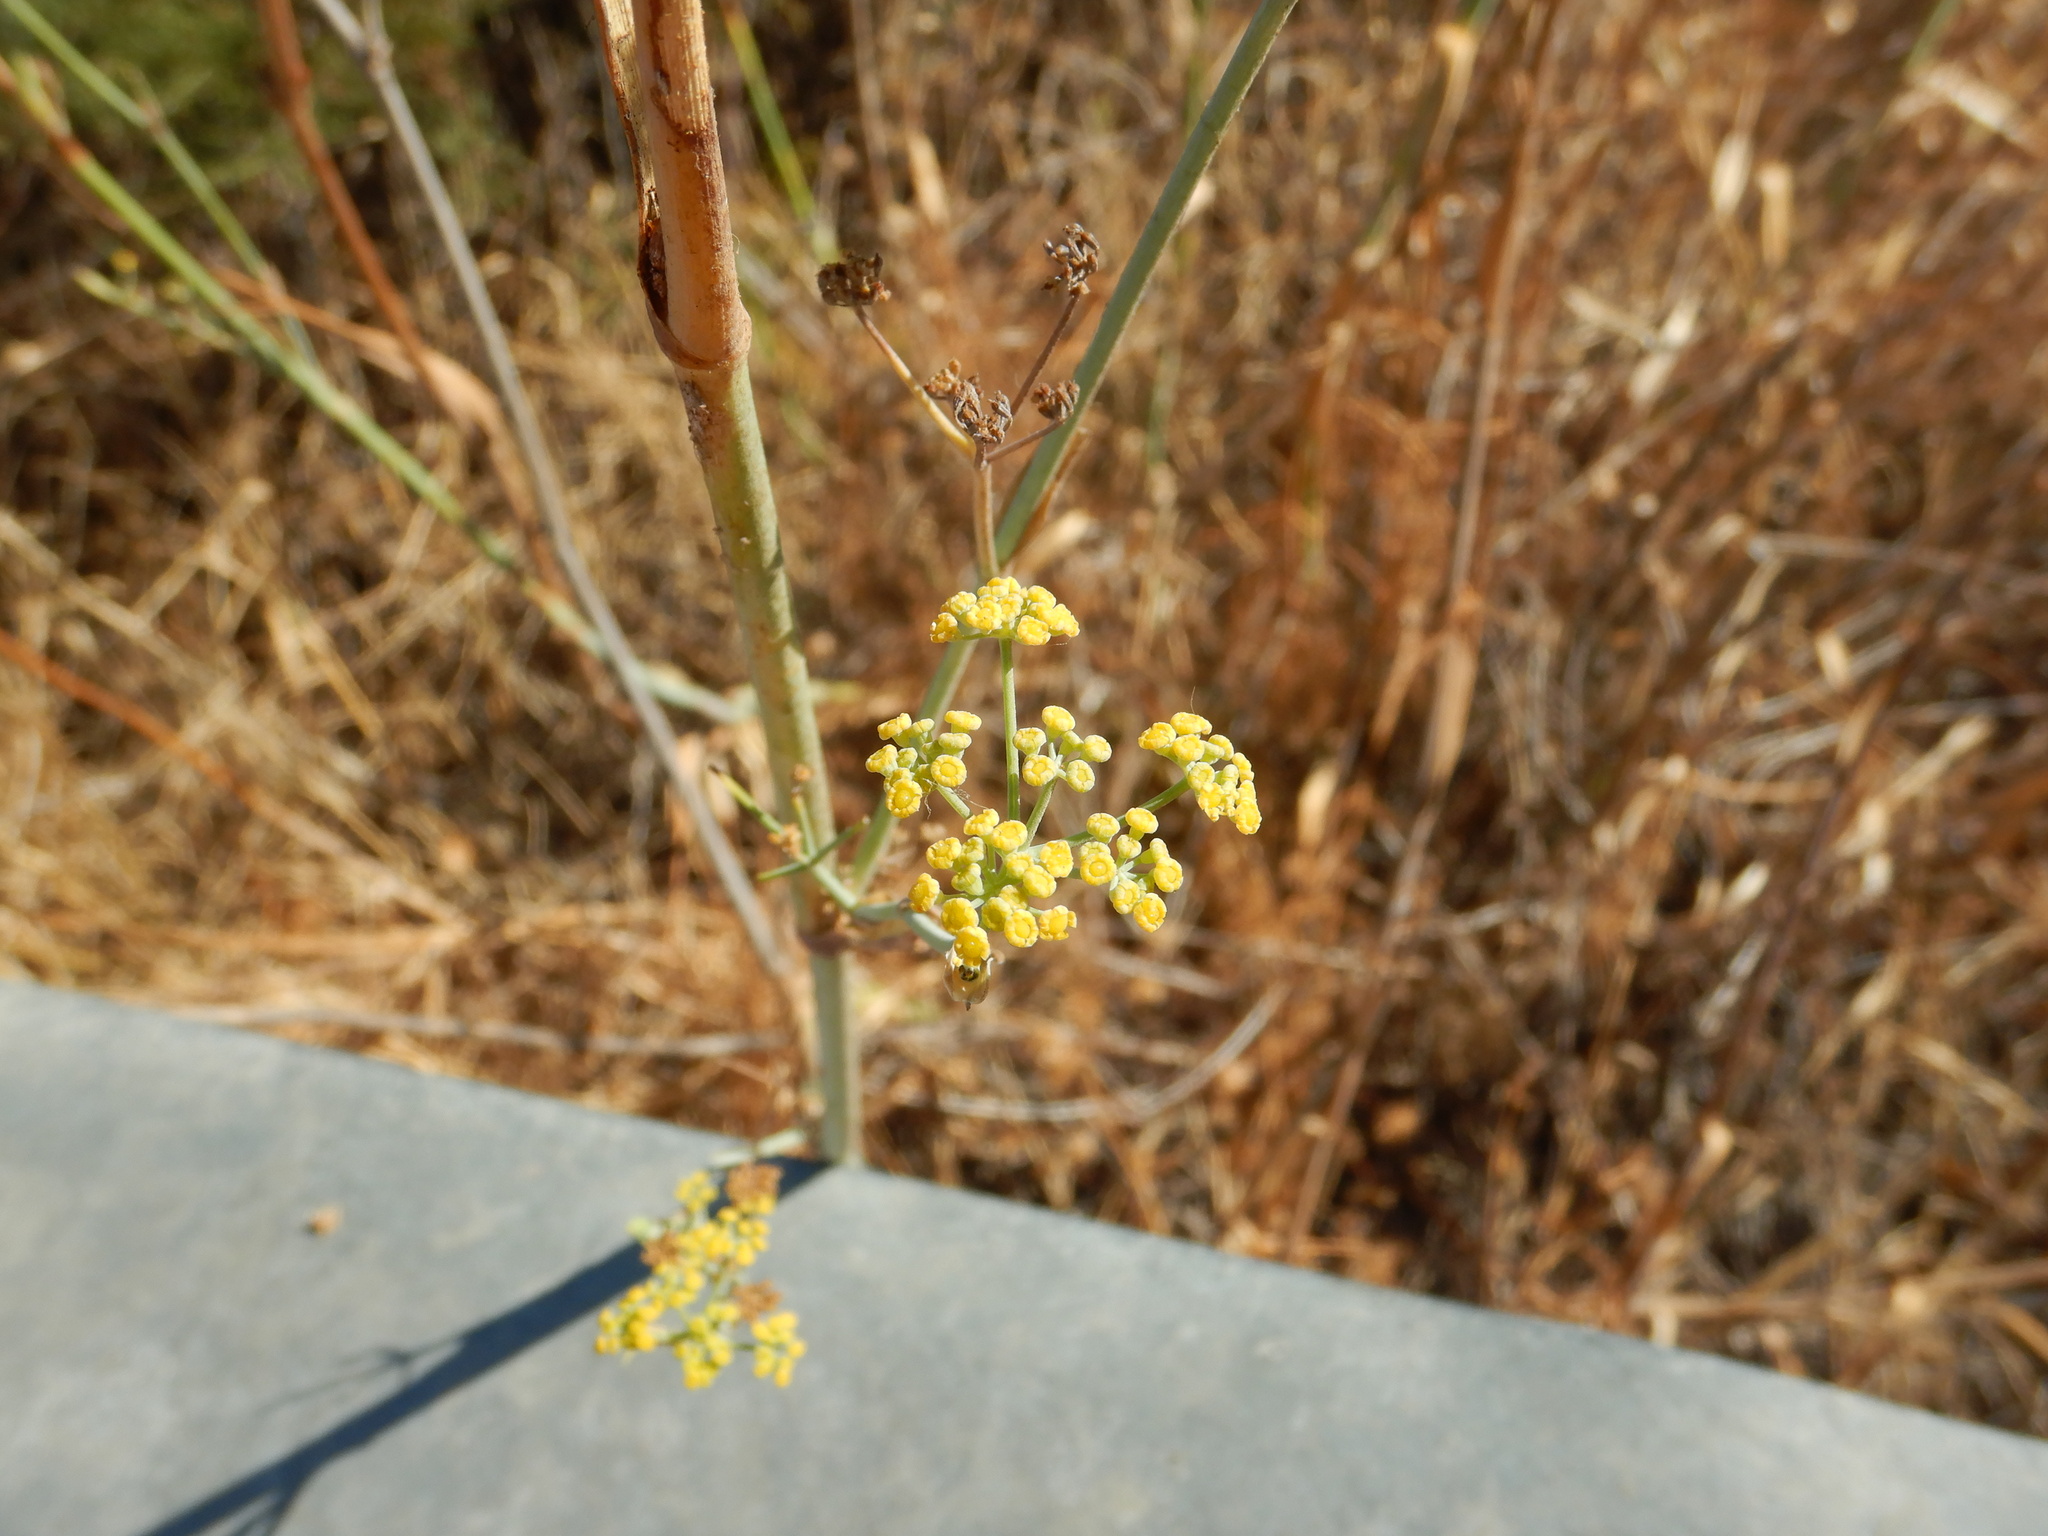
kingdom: Plantae
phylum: Tracheophyta
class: Magnoliopsida
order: Apiales
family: Apiaceae
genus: Foeniculum
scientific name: Foeniculum vulgare
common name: Fennel
